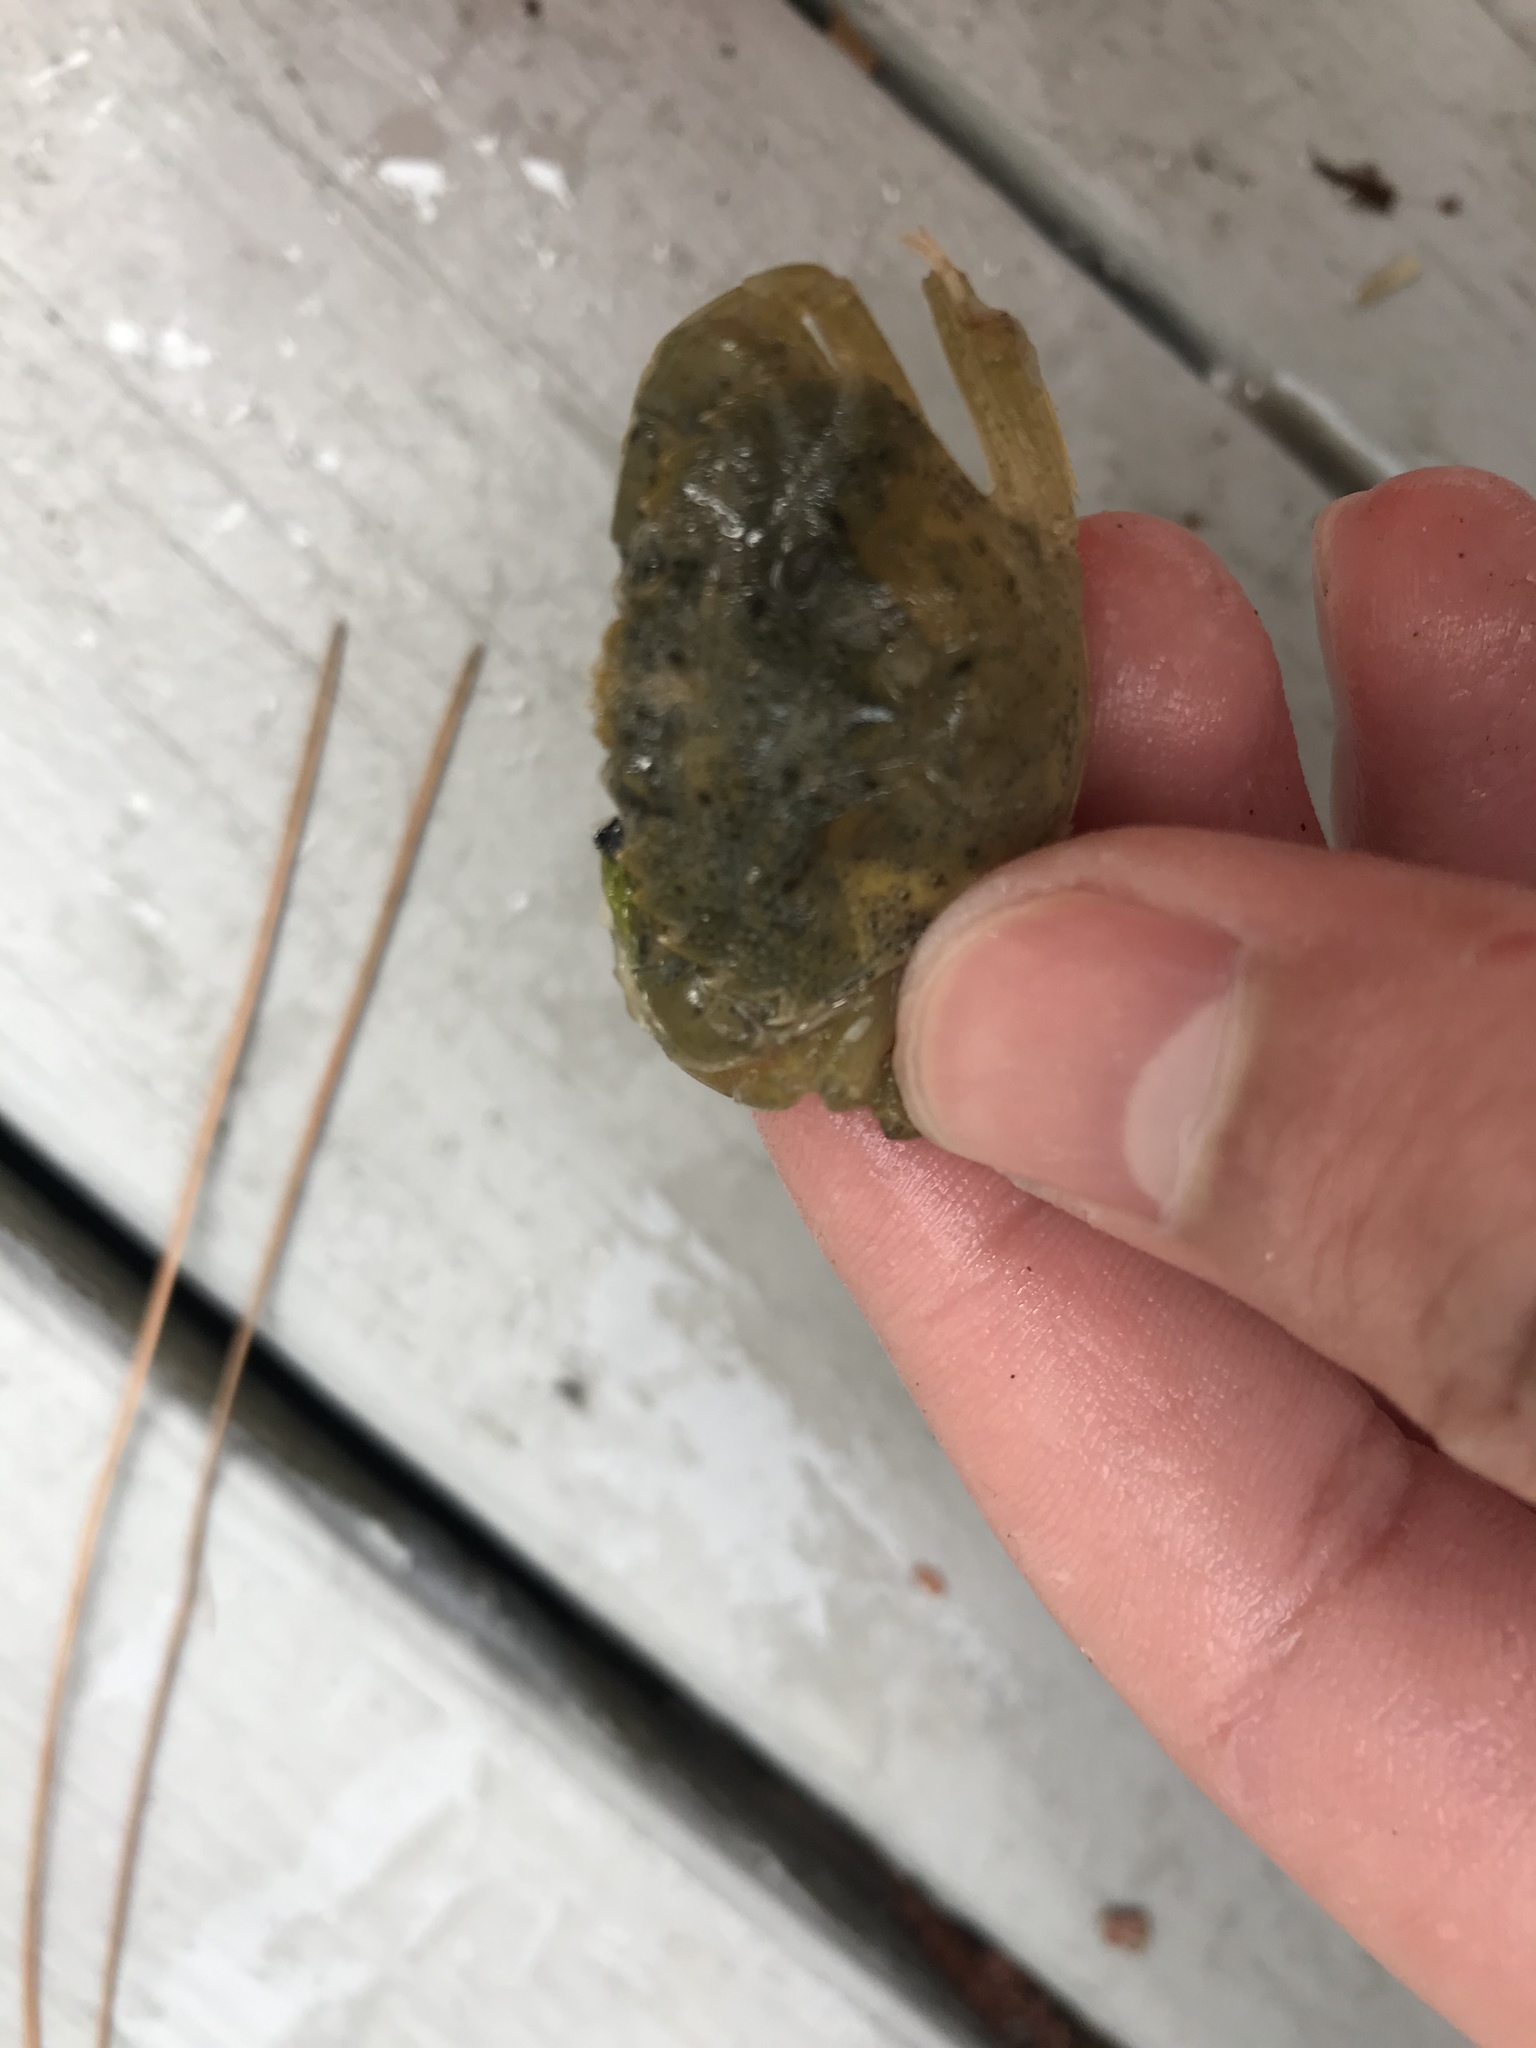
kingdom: Animalia
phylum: Arthropoda
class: Malacostraca
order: Decapoda
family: Carcinidae
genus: Carcinus
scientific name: Carcinus maenas
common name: European green crab
